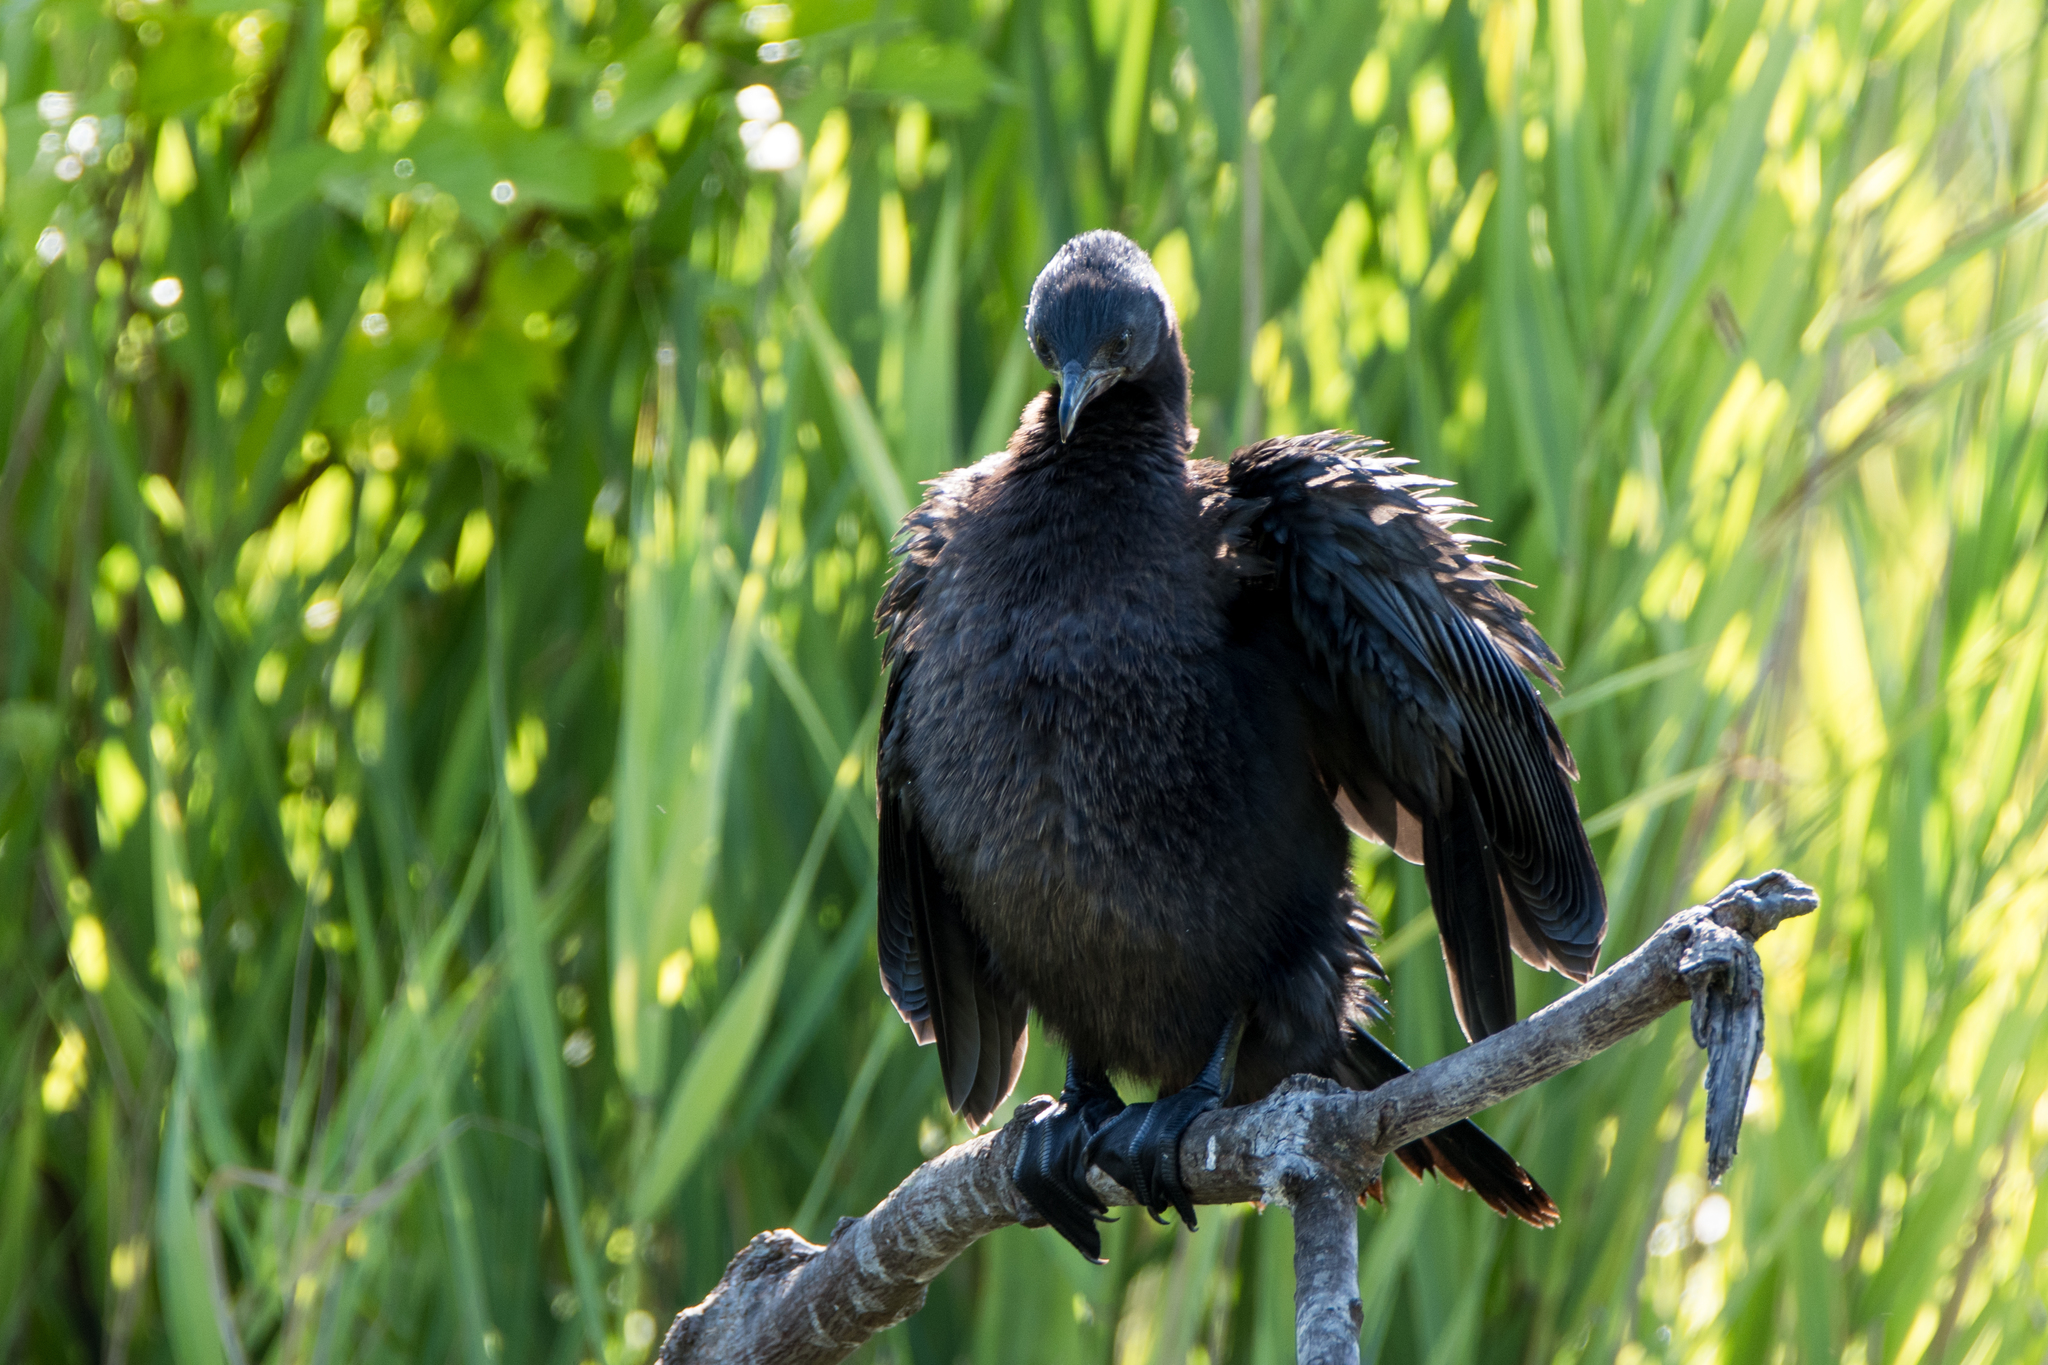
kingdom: Animalia
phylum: Chordata
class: Aves
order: Suliformes
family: Phalacrocoracidae
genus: Microcarbo
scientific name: Microcarbo pygmaeus
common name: Pygmy cormorant
